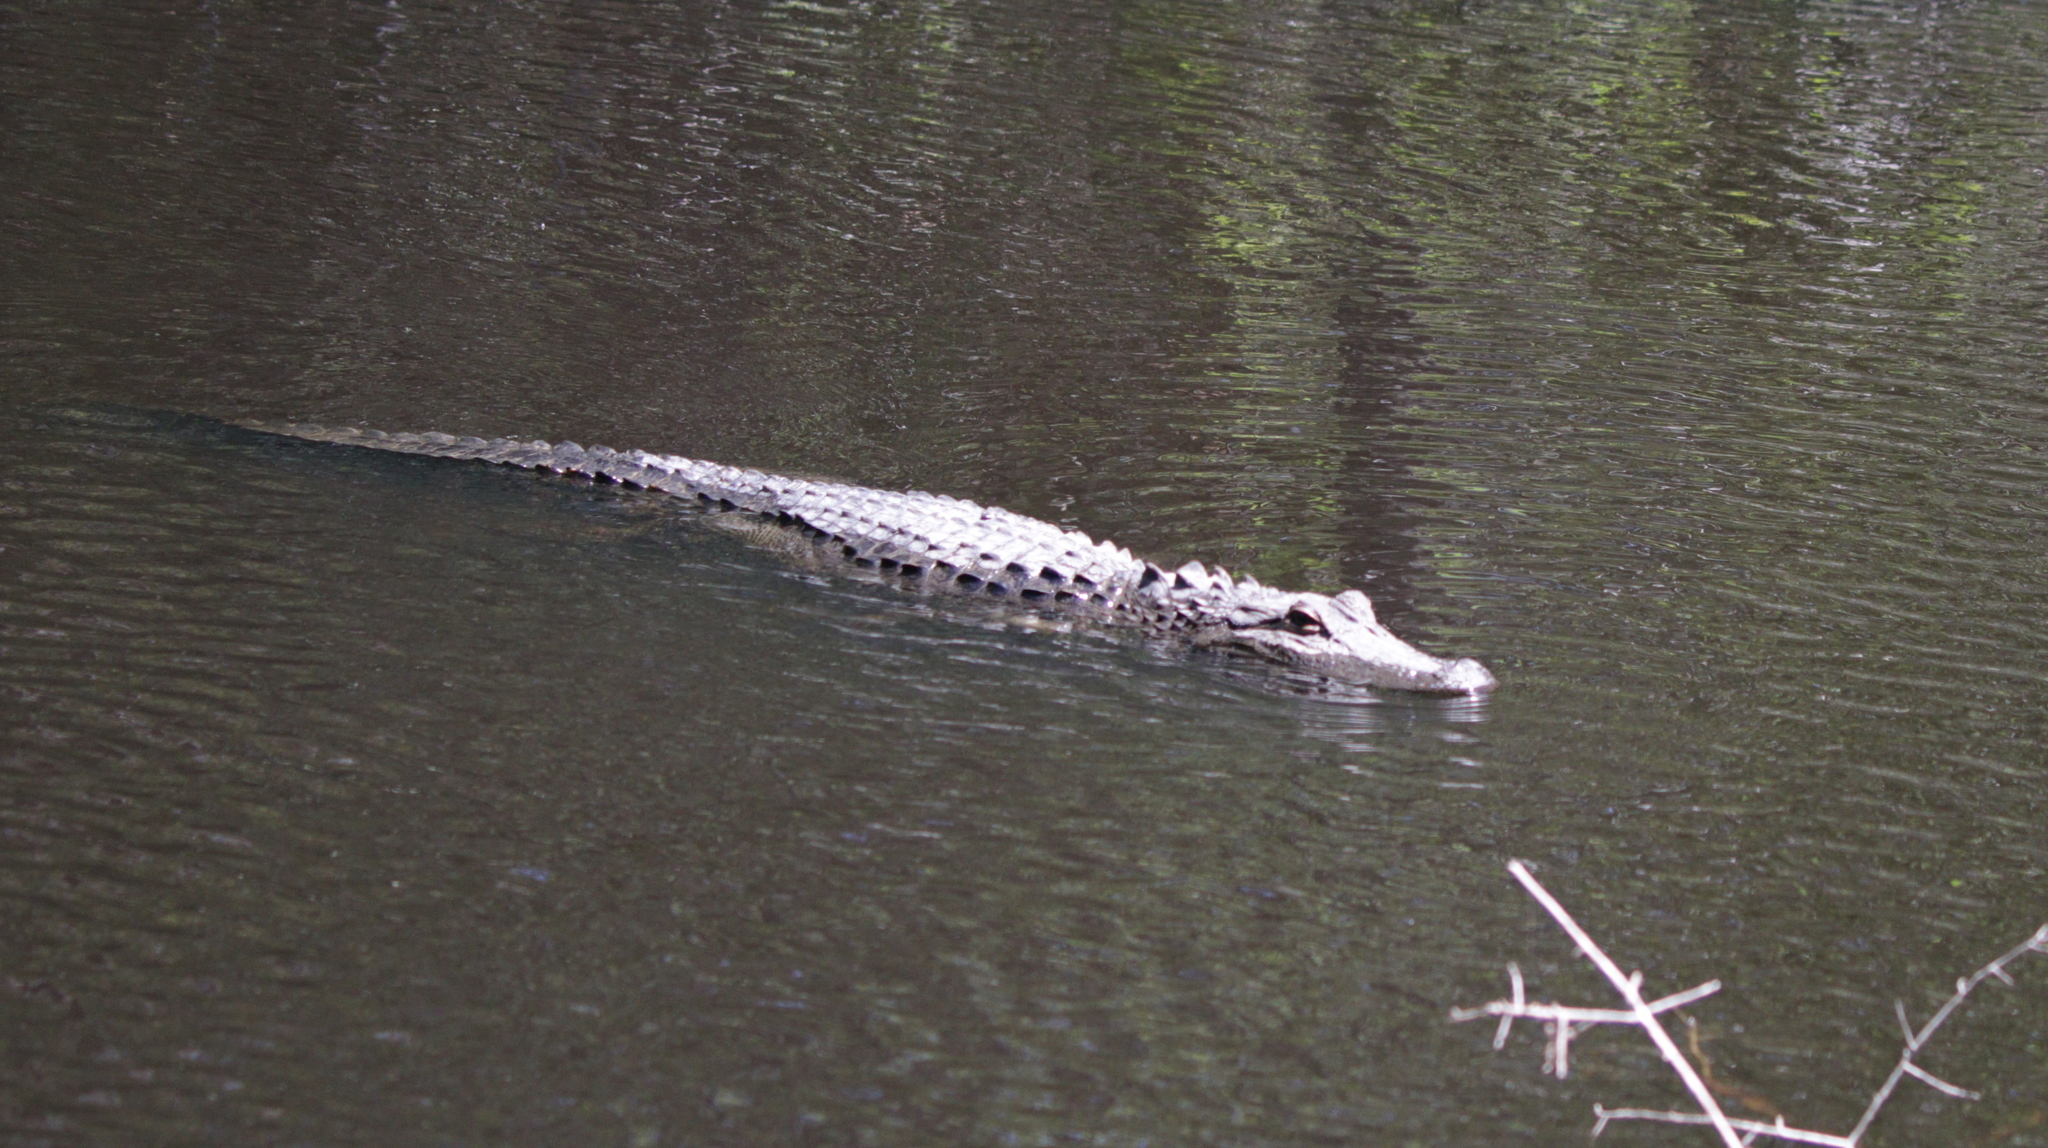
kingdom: Animalia
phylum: Chordata
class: Crocodylia
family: Alligatoridae
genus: Alligator
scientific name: Alligator mississippiensis
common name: American alligator
